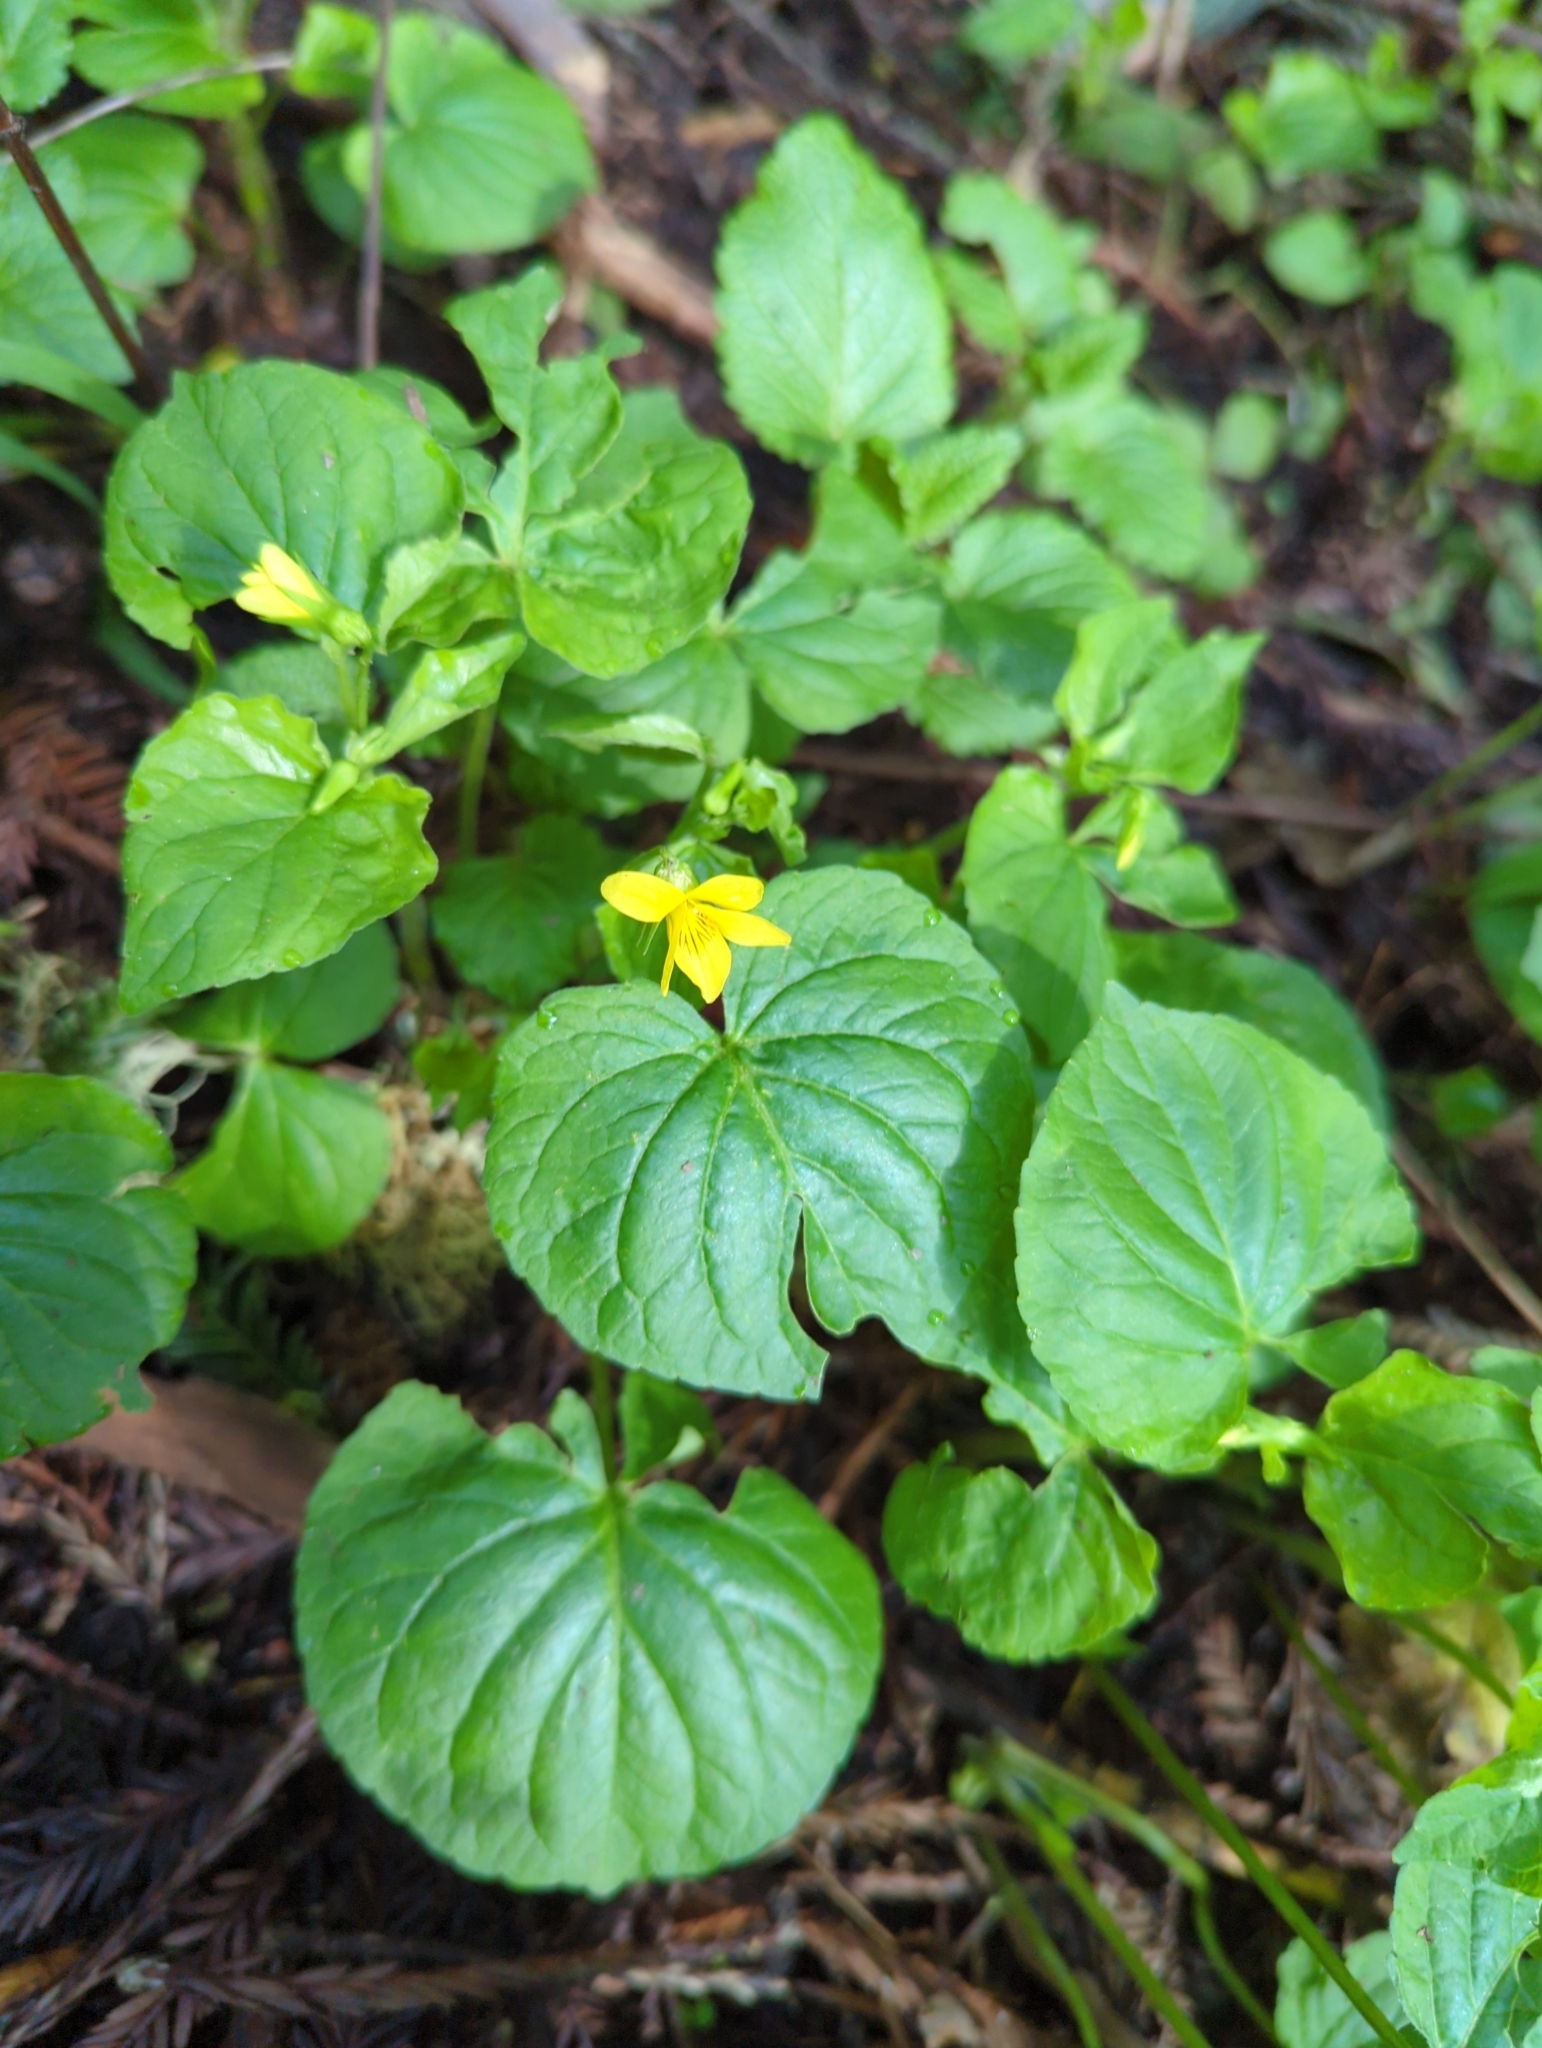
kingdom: Plantae
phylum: Tracheophyta
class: Magnoliopsida
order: Malpighiales
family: Violaceae
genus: Viola
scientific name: Viola glabella
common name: Stream violet
